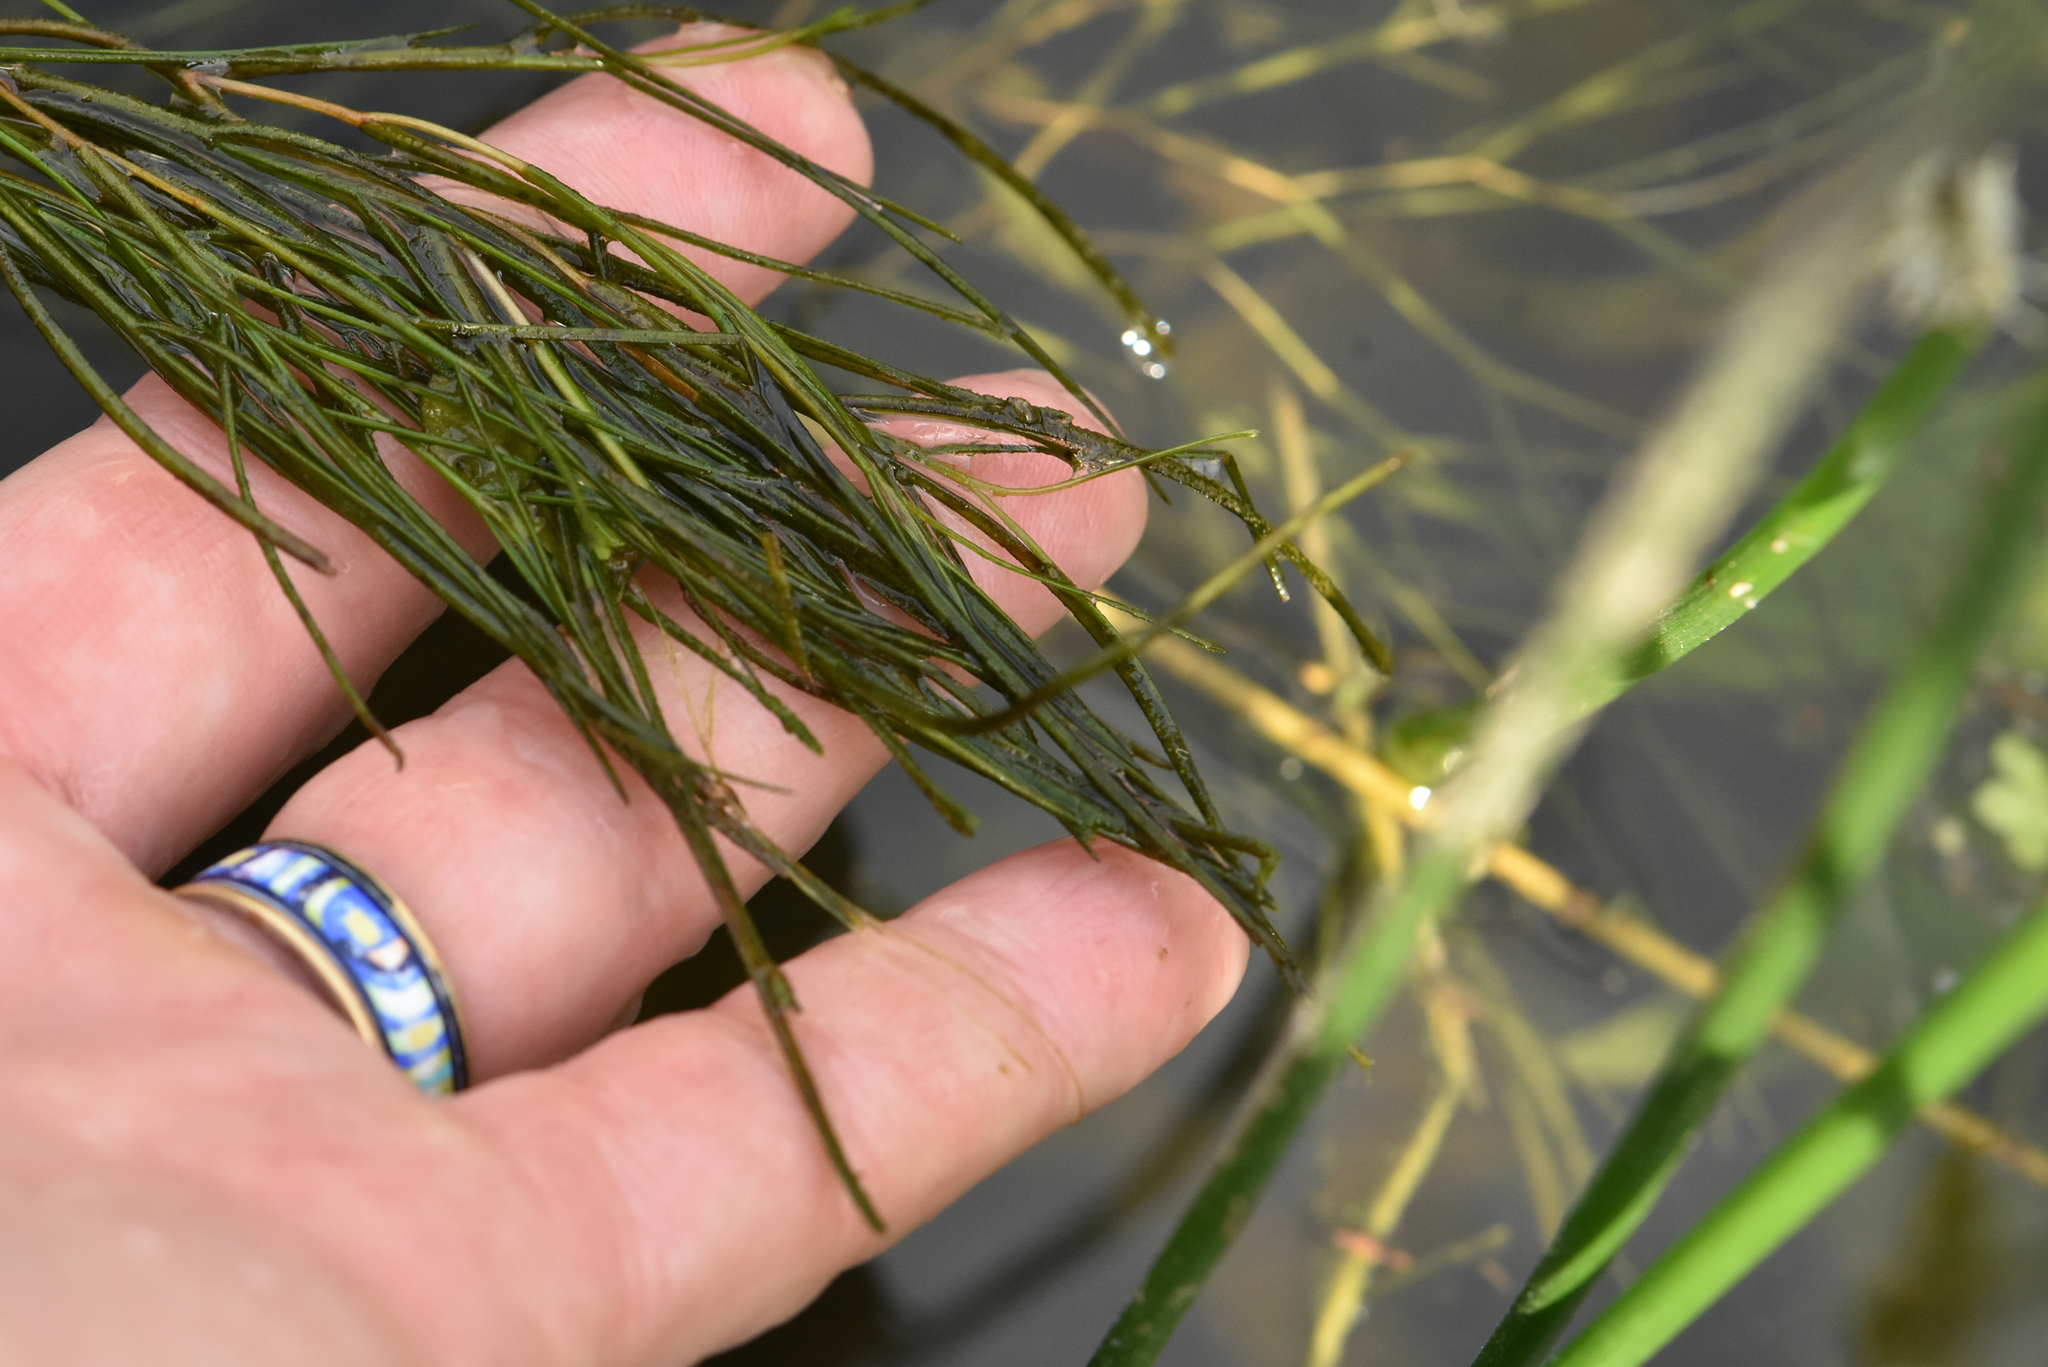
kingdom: Plantae
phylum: Tracheophyta
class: Liliopsida
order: Alismatales
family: Potamogetonaceae
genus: Stuckenia
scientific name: Stuckenia pectinata
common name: Sago pondweed
